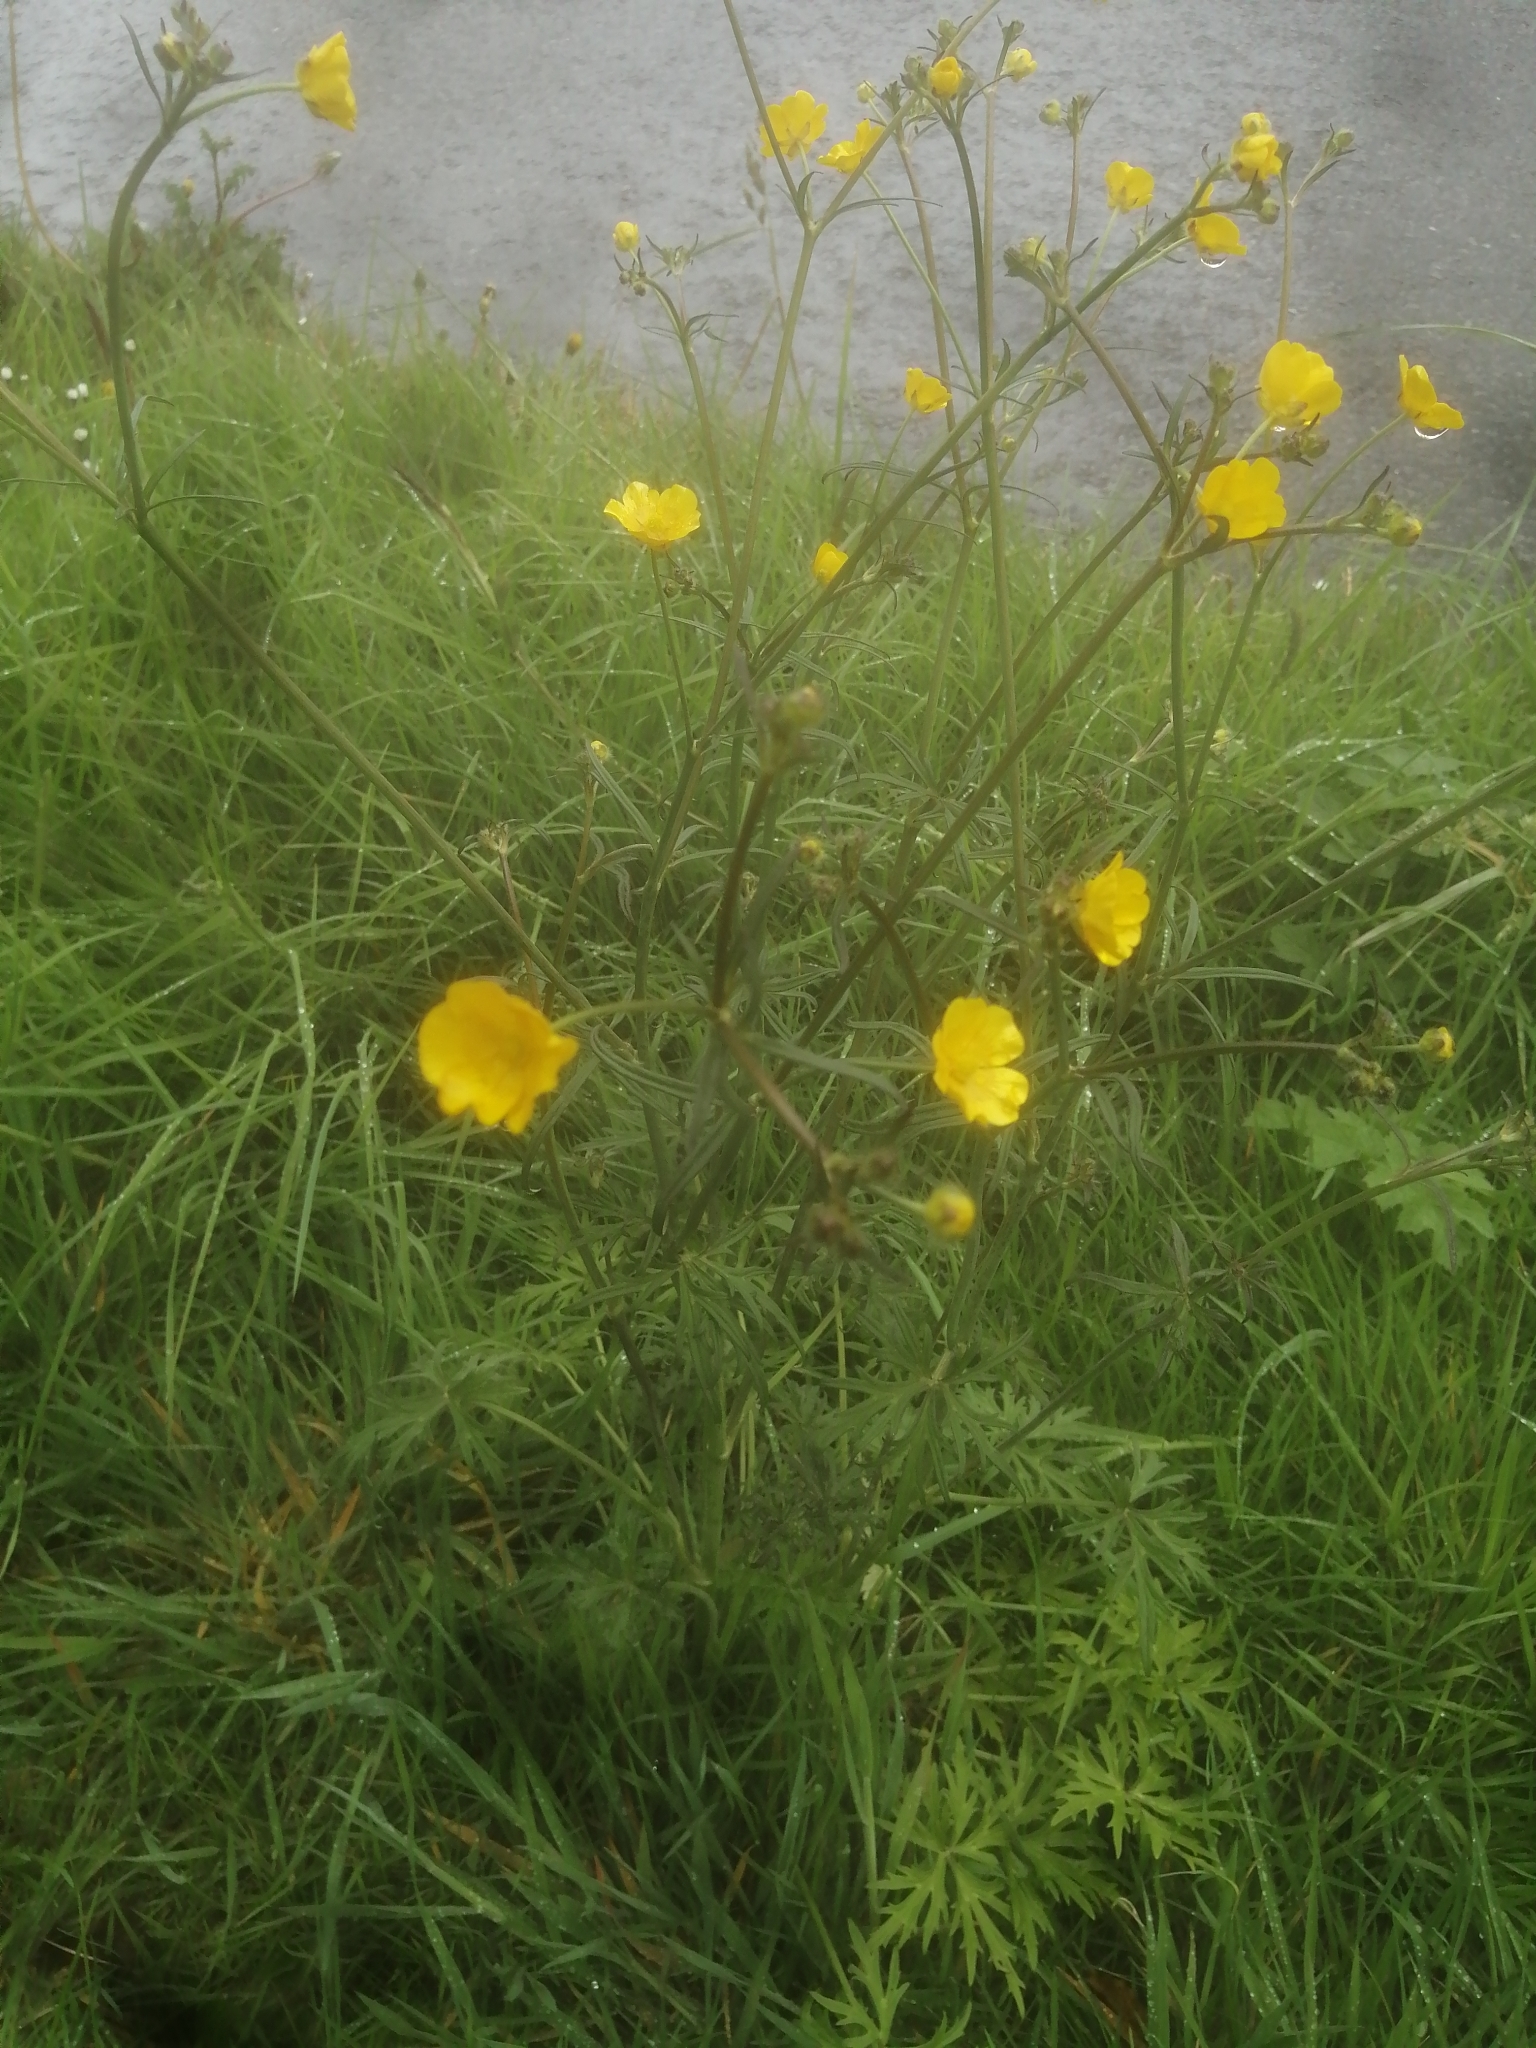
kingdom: Plantae
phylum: Tracheophyta
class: Magnoliopsida
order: Ranunculales
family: Ranunculaceae
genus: Ranunculus
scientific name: Ranunculus acris
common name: Meadow buttercup
